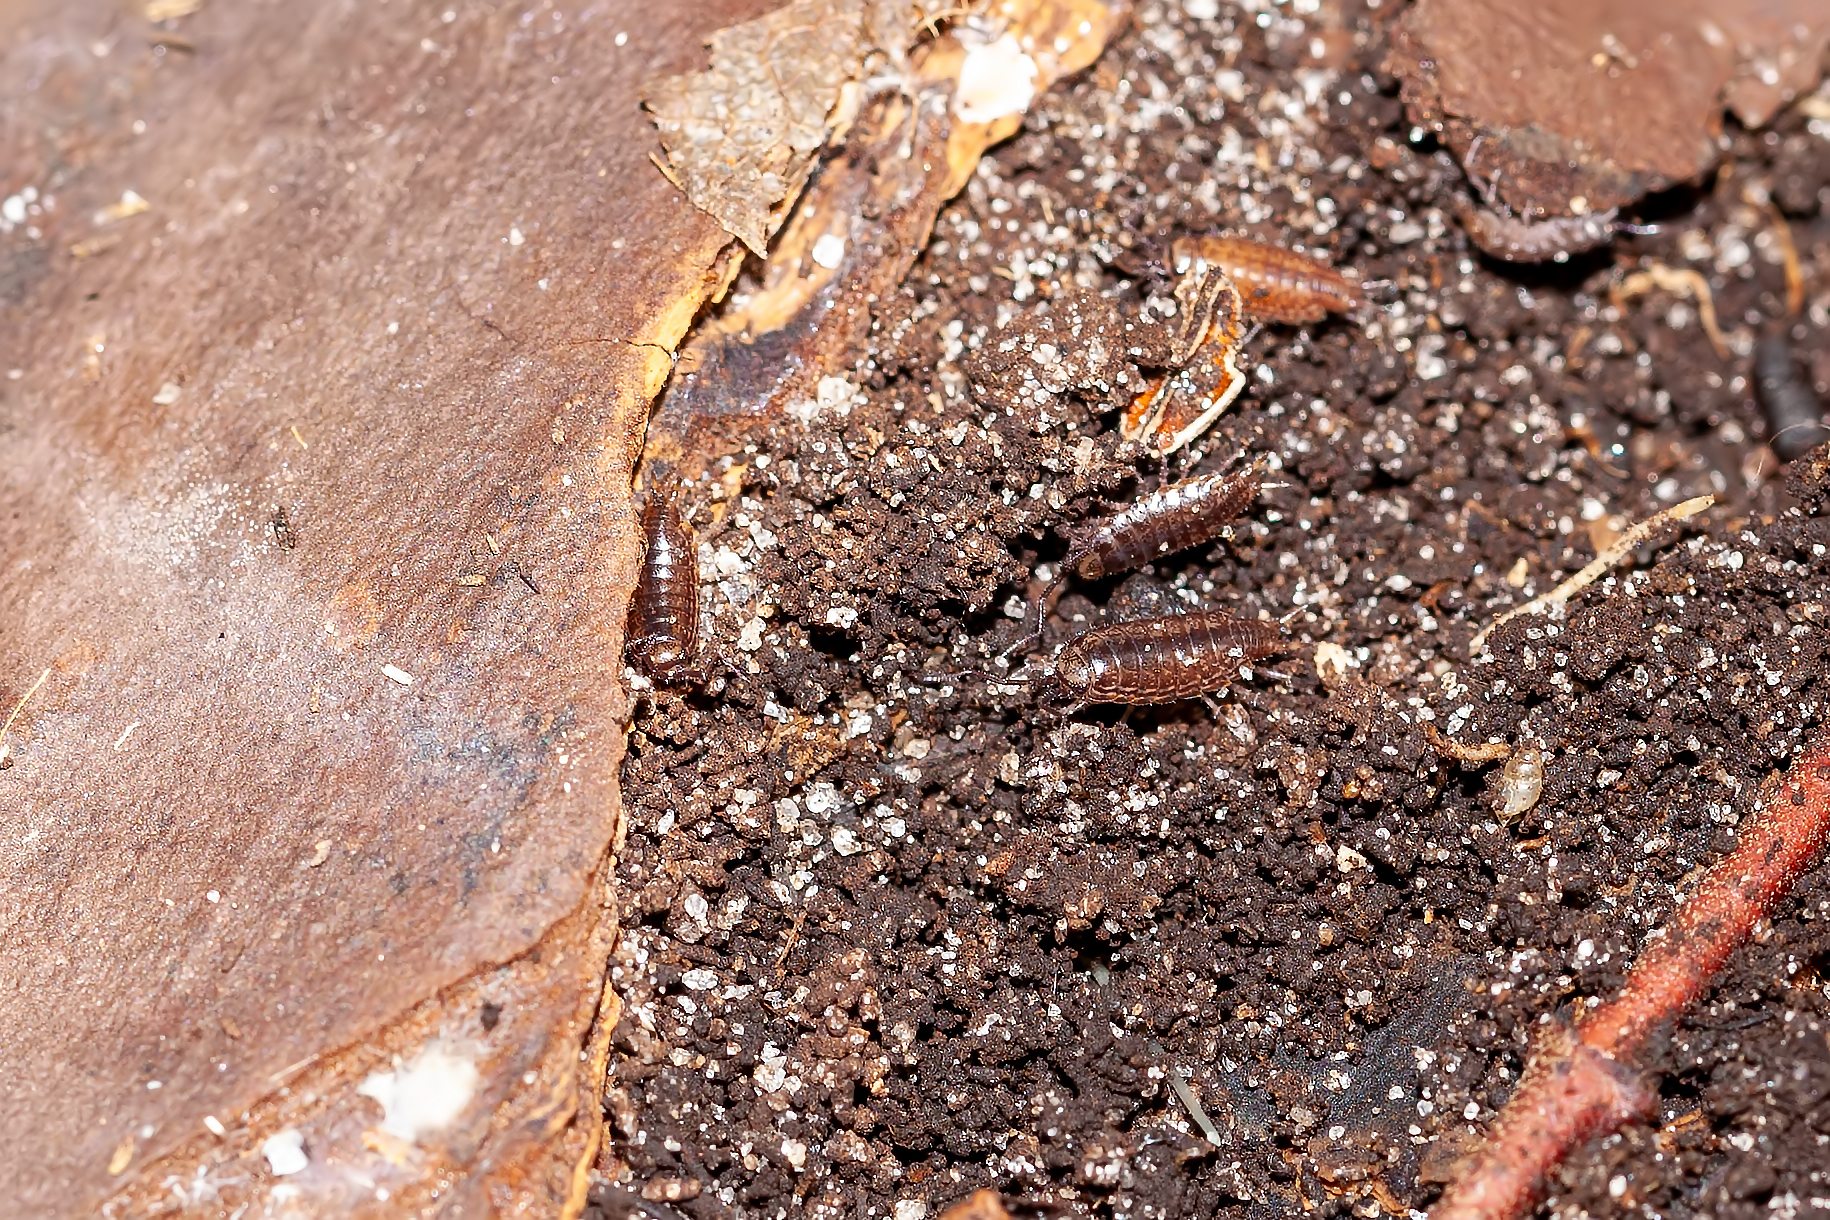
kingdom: Animalia
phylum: Arthropoda
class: Malacostraca
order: Isopoda
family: Philosciidae
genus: Atlantoscia
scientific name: Atlantoscia floridana
